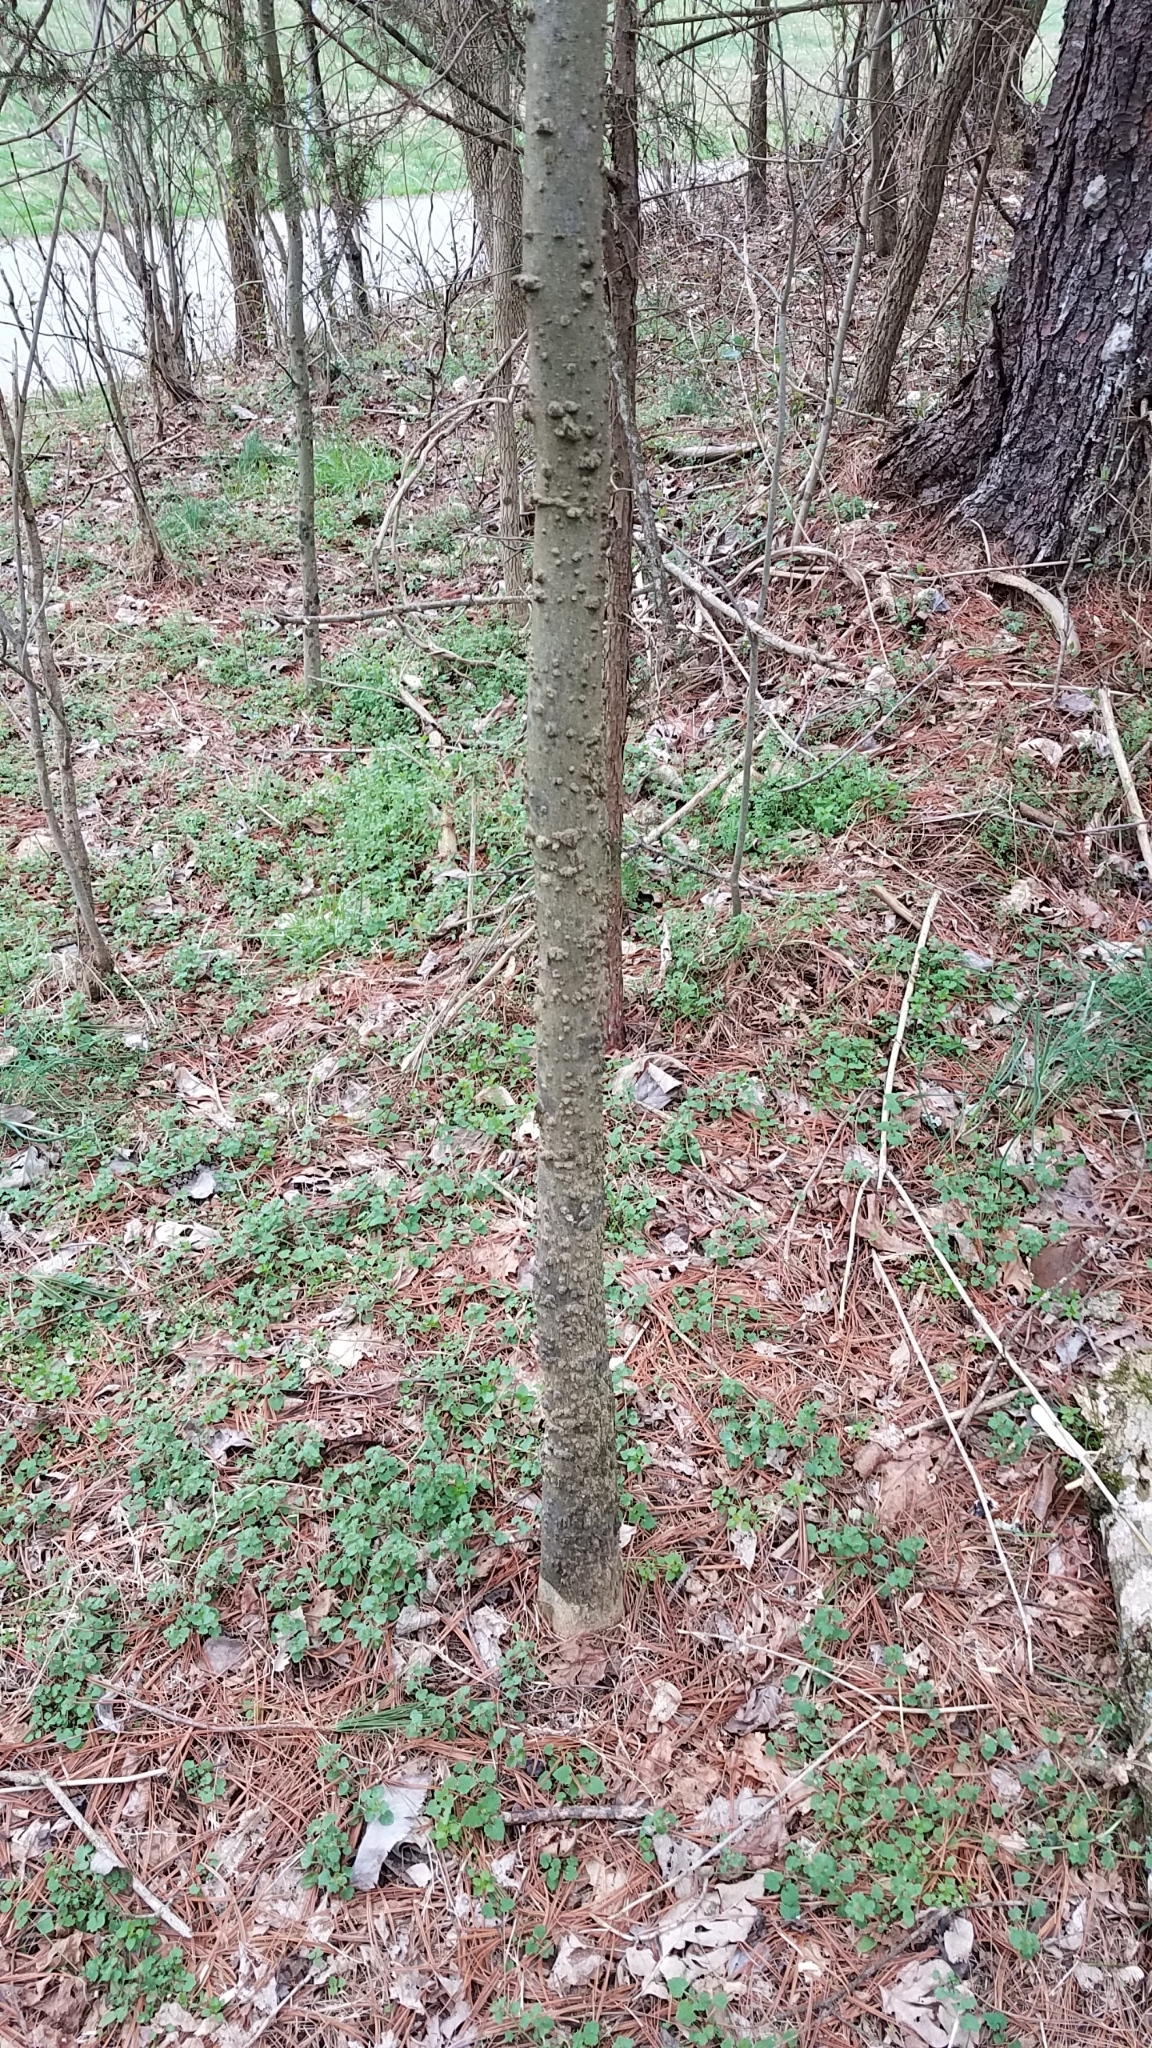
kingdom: Plantae
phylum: Tracheophyta
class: Magnoliopsida
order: Rosales
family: Cannabaceae
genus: Celtis
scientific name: Celtis occidentalis
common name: Common hackberry
